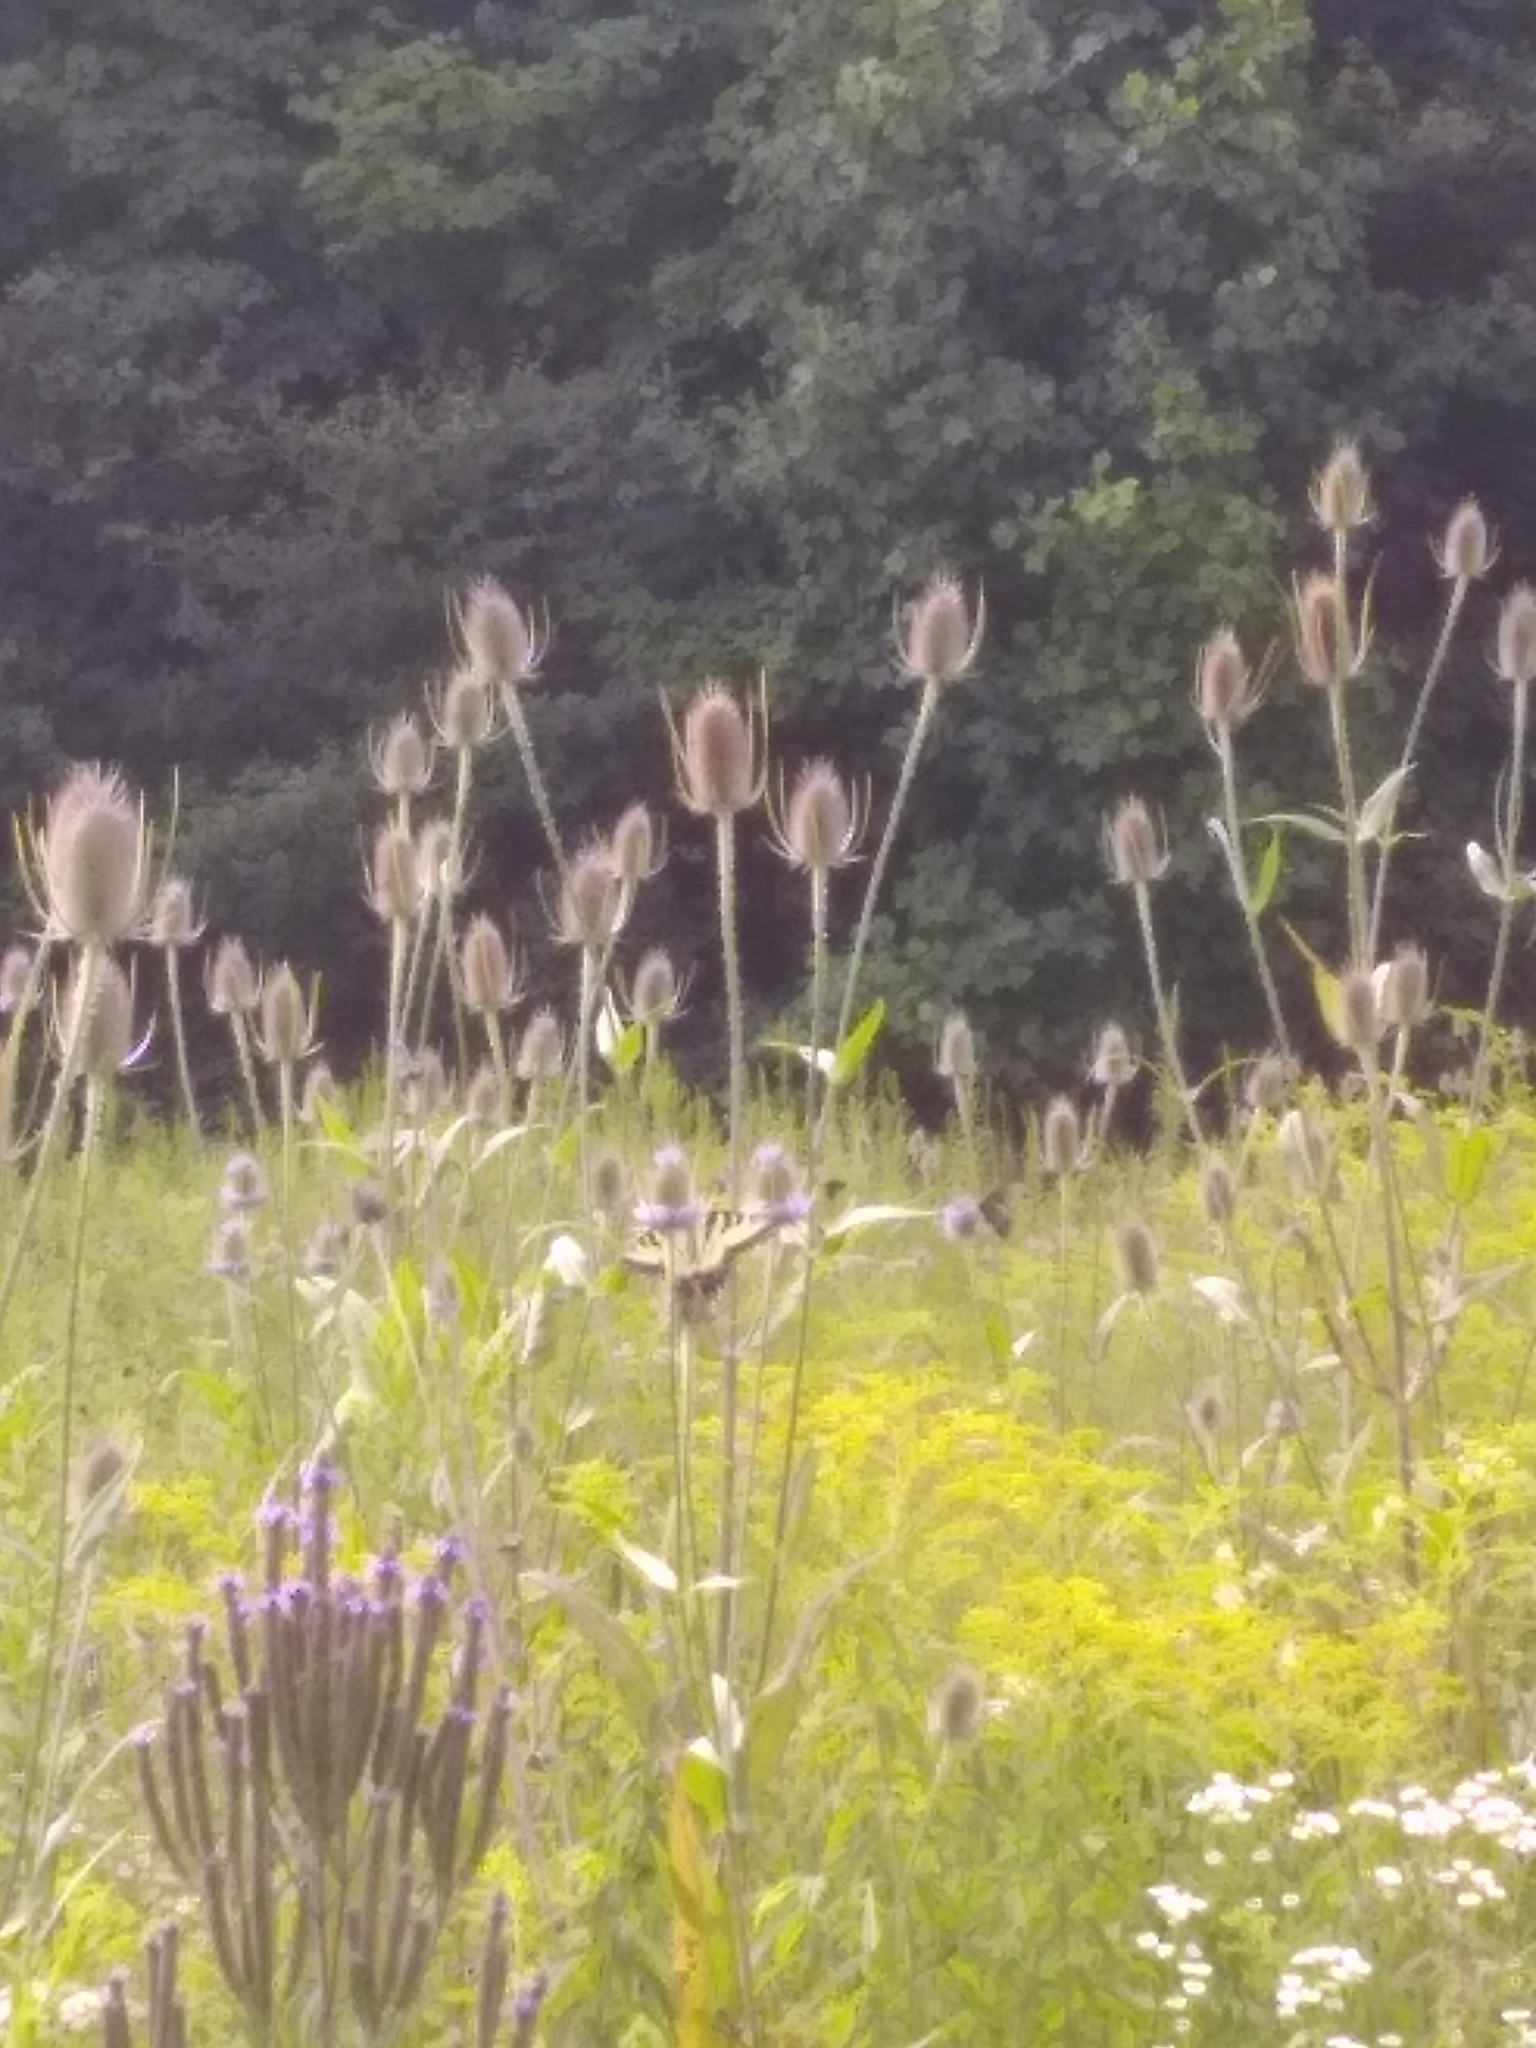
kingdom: Animalia
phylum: Arthropoda
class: Insecta
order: Lepidoptera
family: Papilionidae
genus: Papilio
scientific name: Papilio glaucus
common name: Tiger swallowtail
